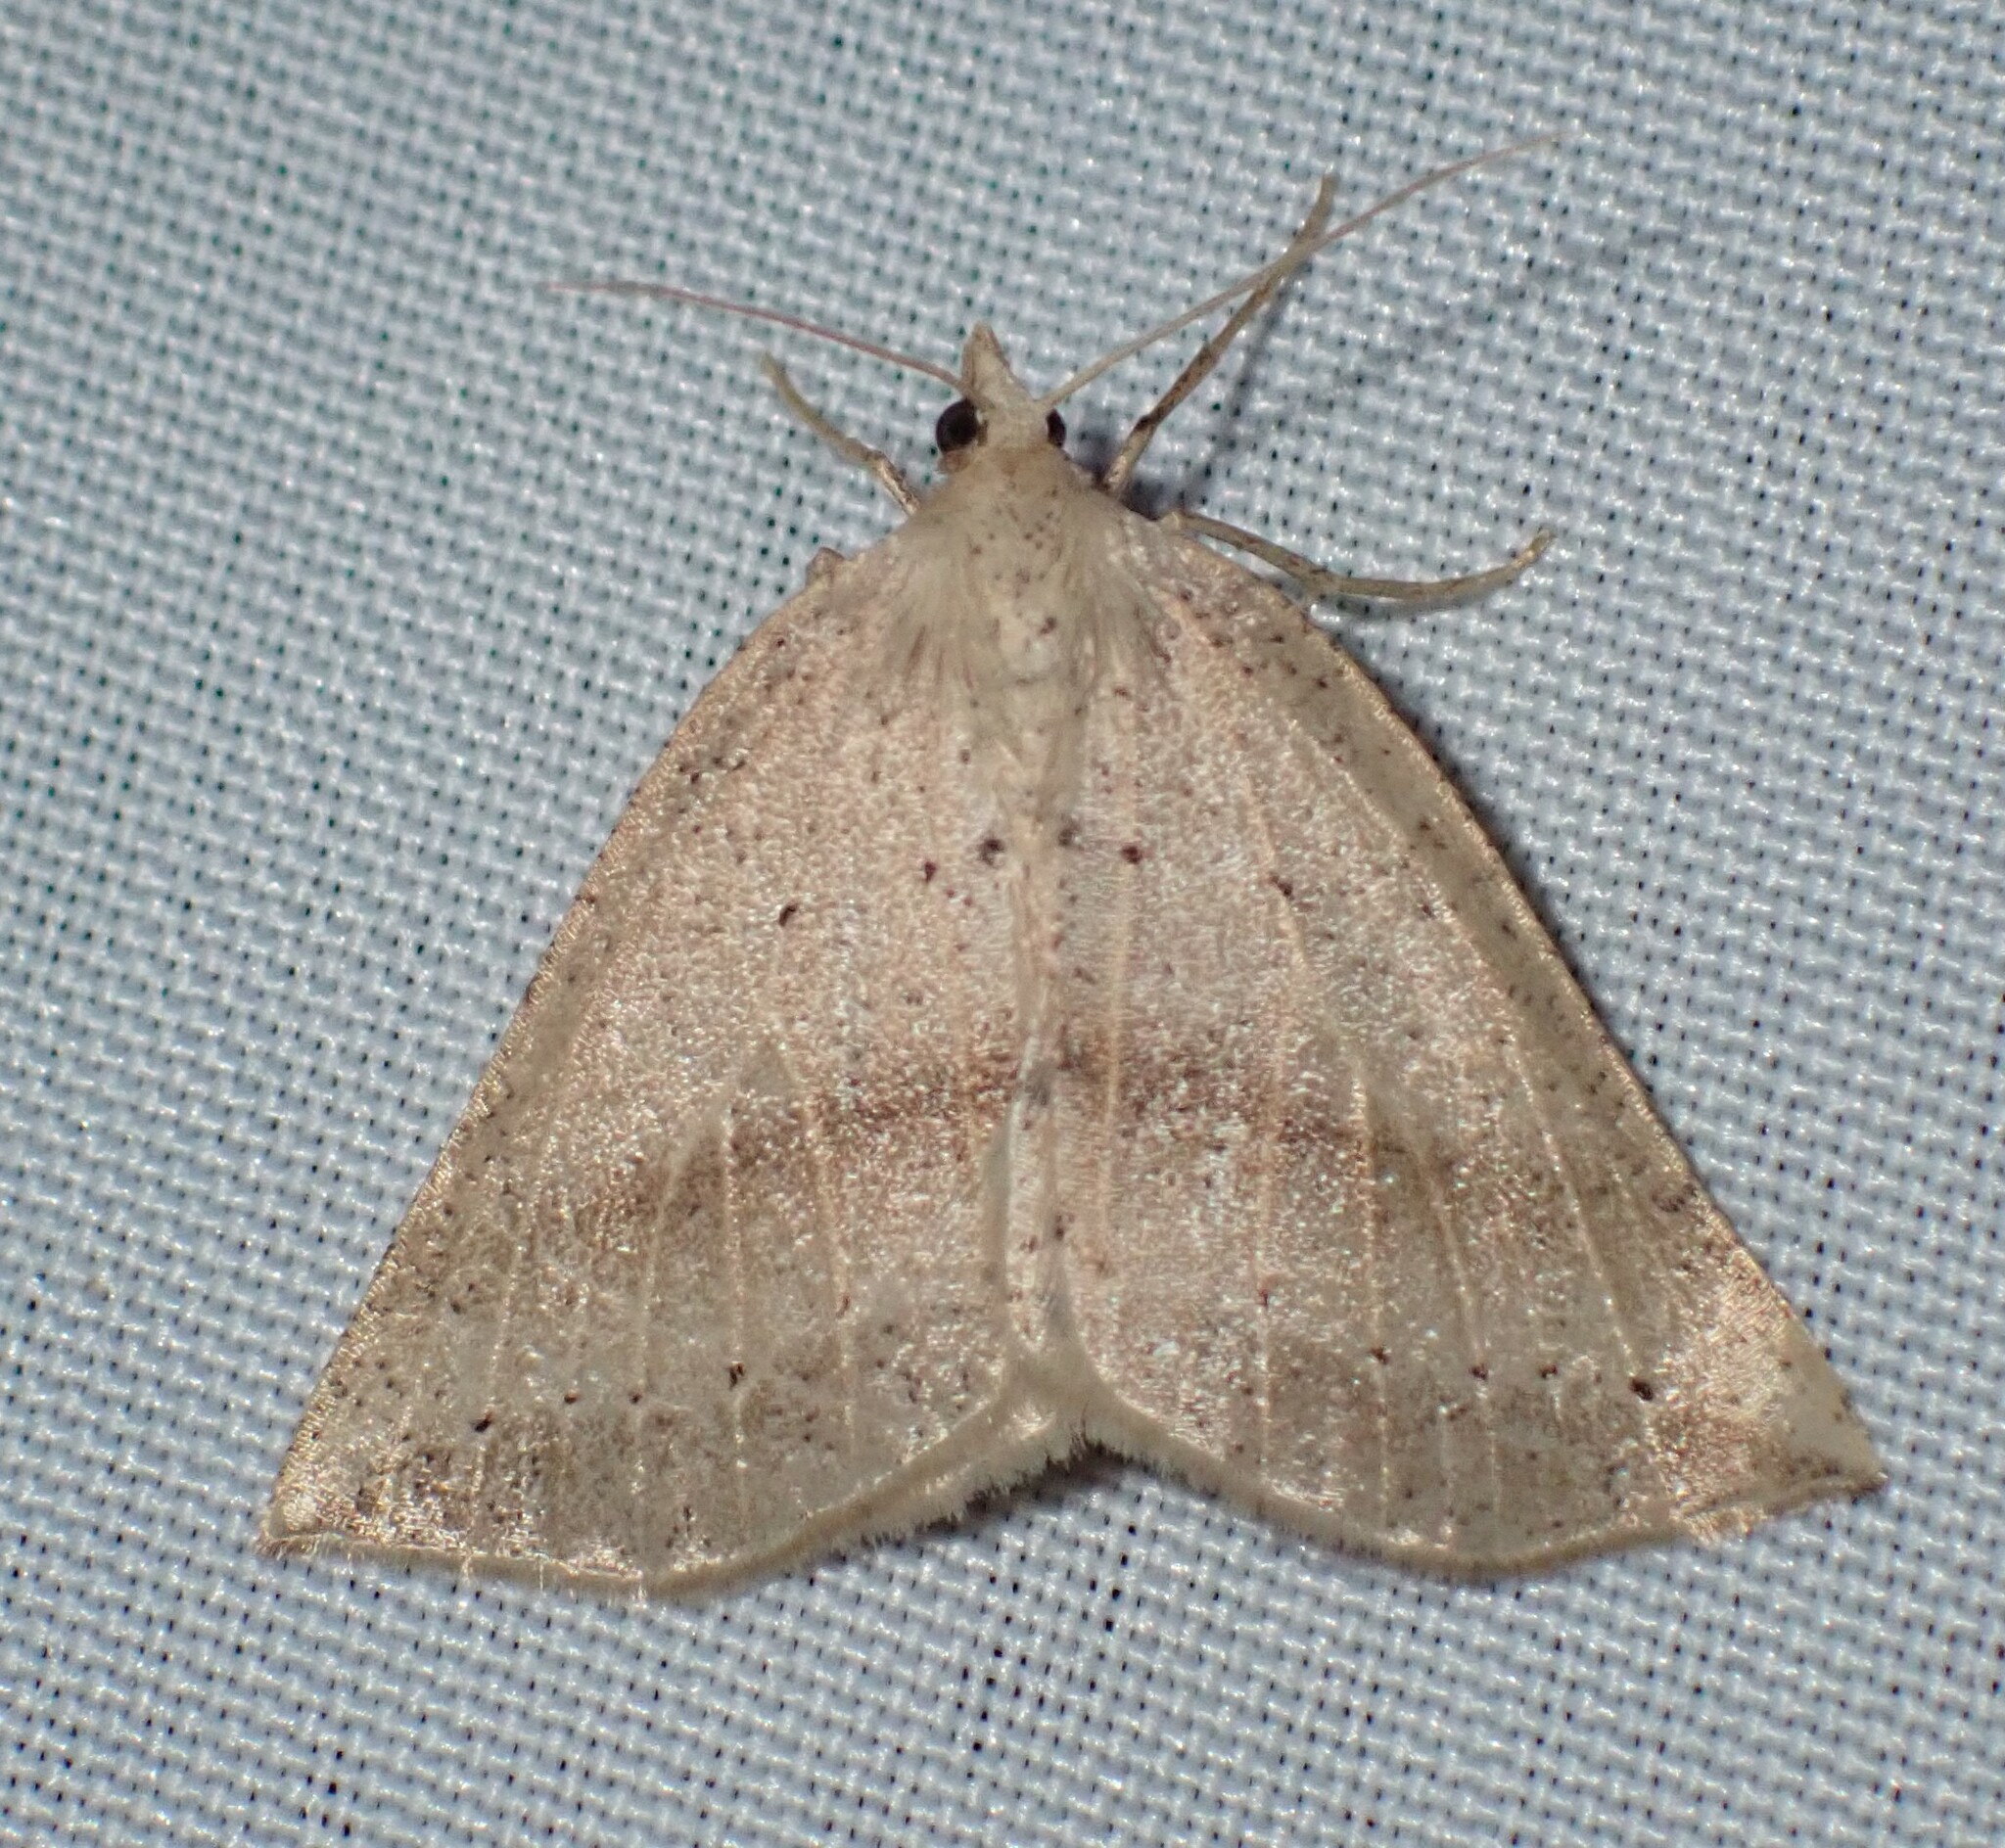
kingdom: Animalia
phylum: Arthropoda
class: Insecta
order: Lepidoptera
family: Geometridae
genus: Thallophaga
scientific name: Thallophaga taylorata
